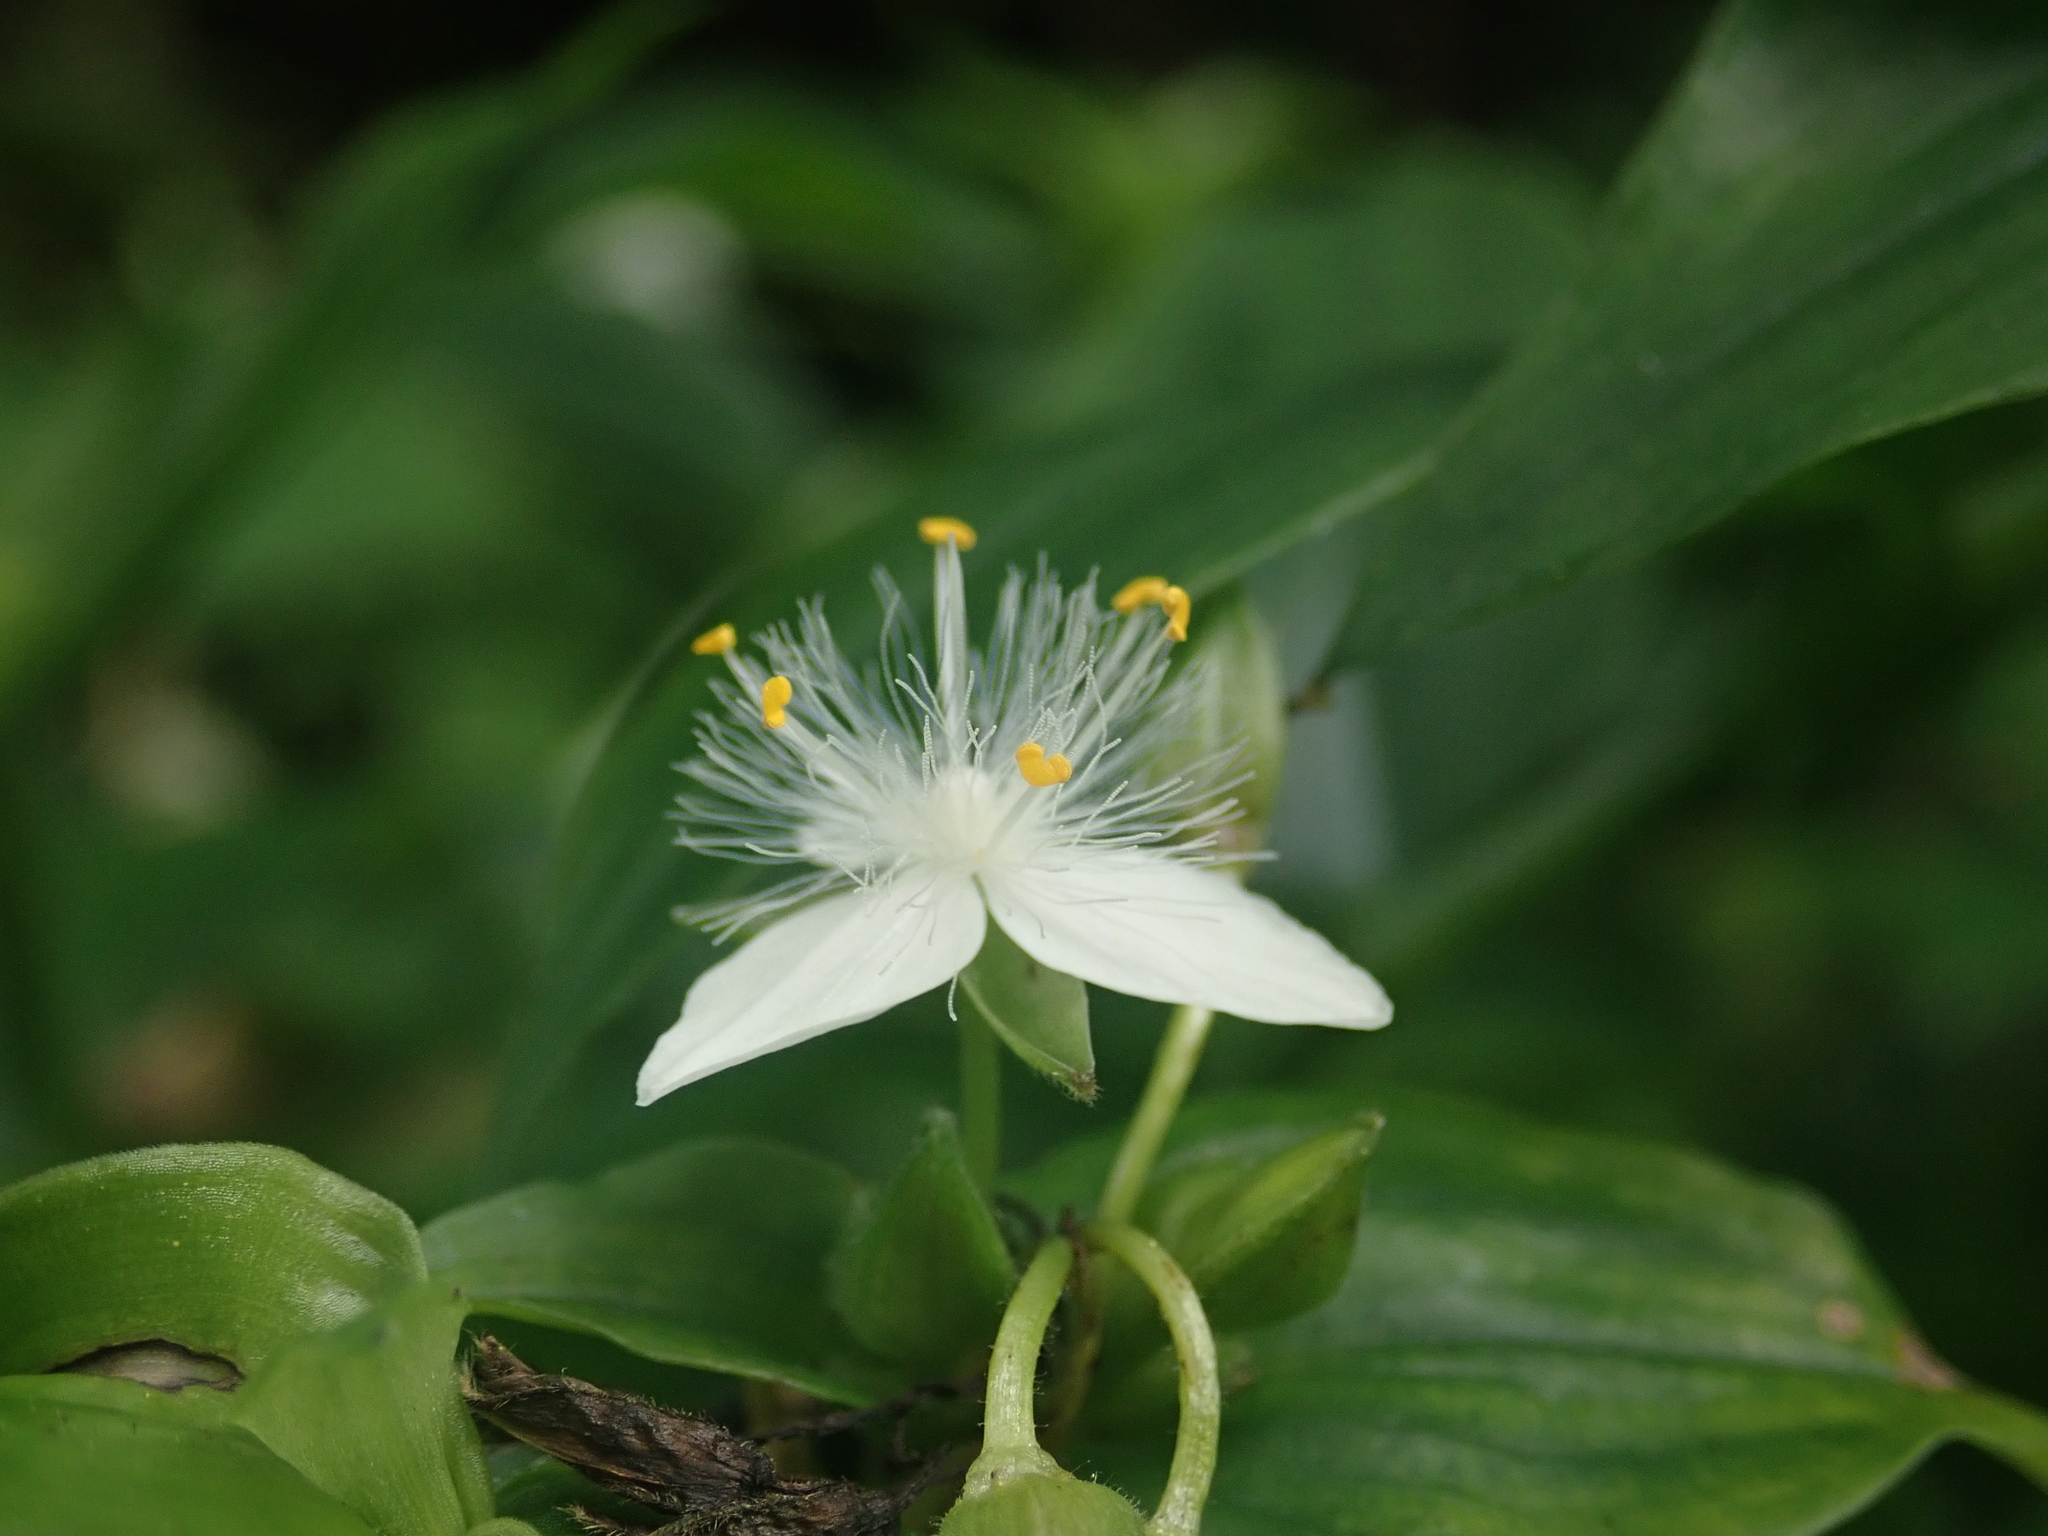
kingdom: Plantae
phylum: Tracheophyta
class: Liliopsida
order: Commelinales
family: Commelinaceae
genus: Tradescantia
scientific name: Tradescantia fluminensis
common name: Wandering-jew
